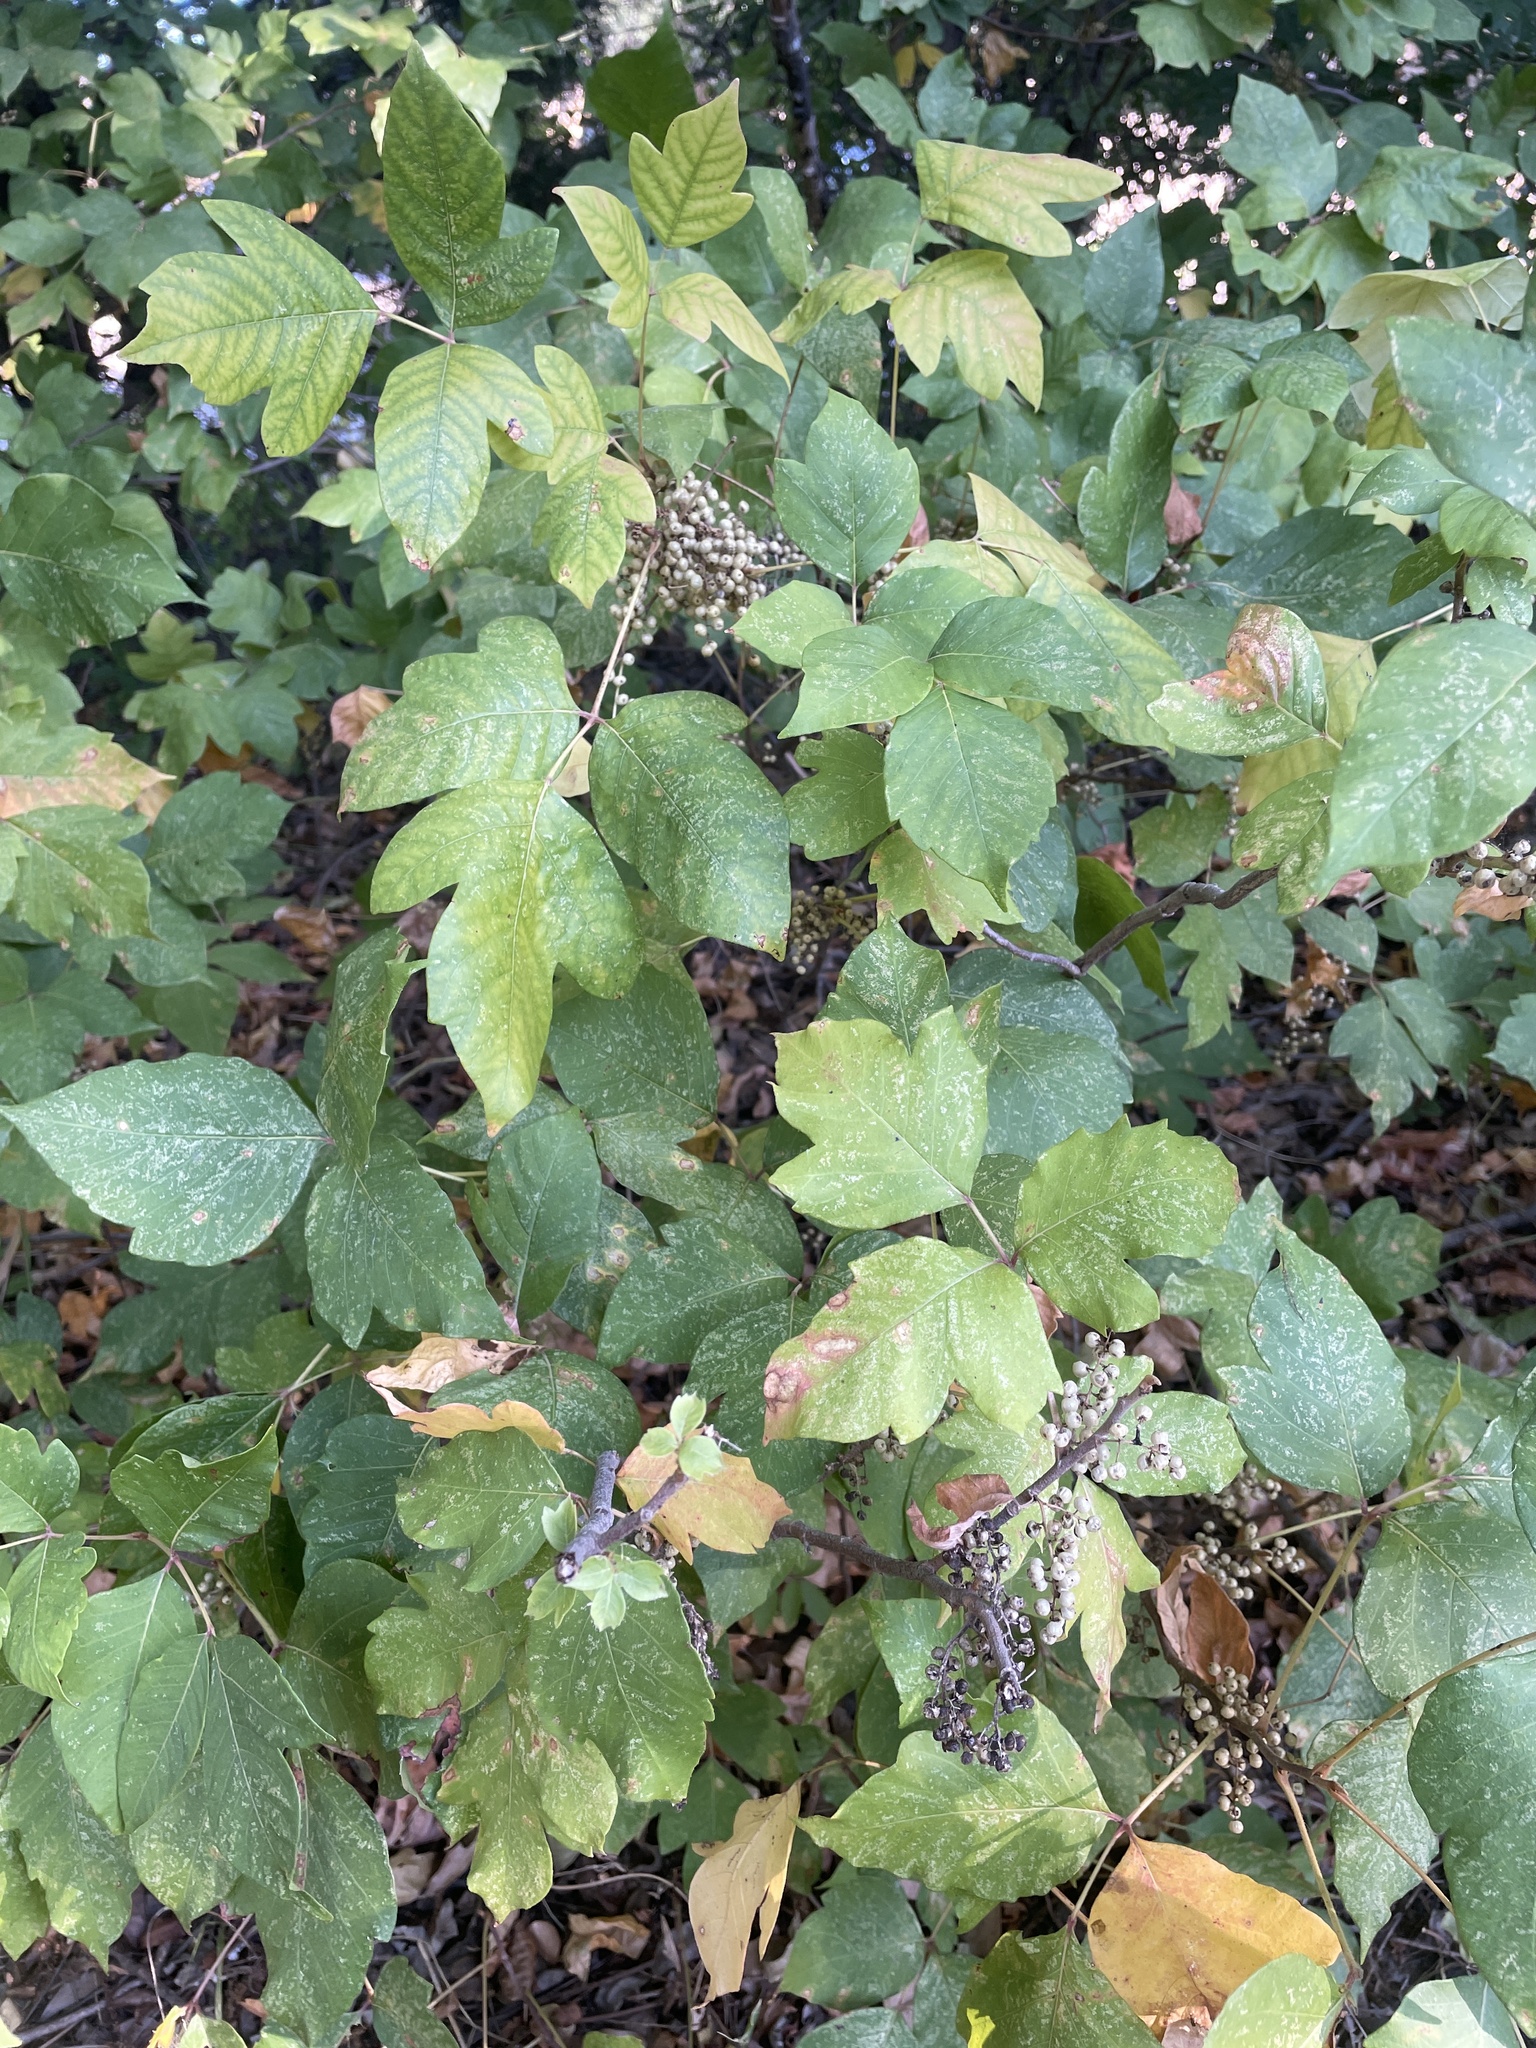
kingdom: Plantae
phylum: Tracheophyta
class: Magnoliopsida
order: Sapindales
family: Anacardiaceae
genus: Toxicodendron
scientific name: Toxicodendron radicans
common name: Poison ivy
